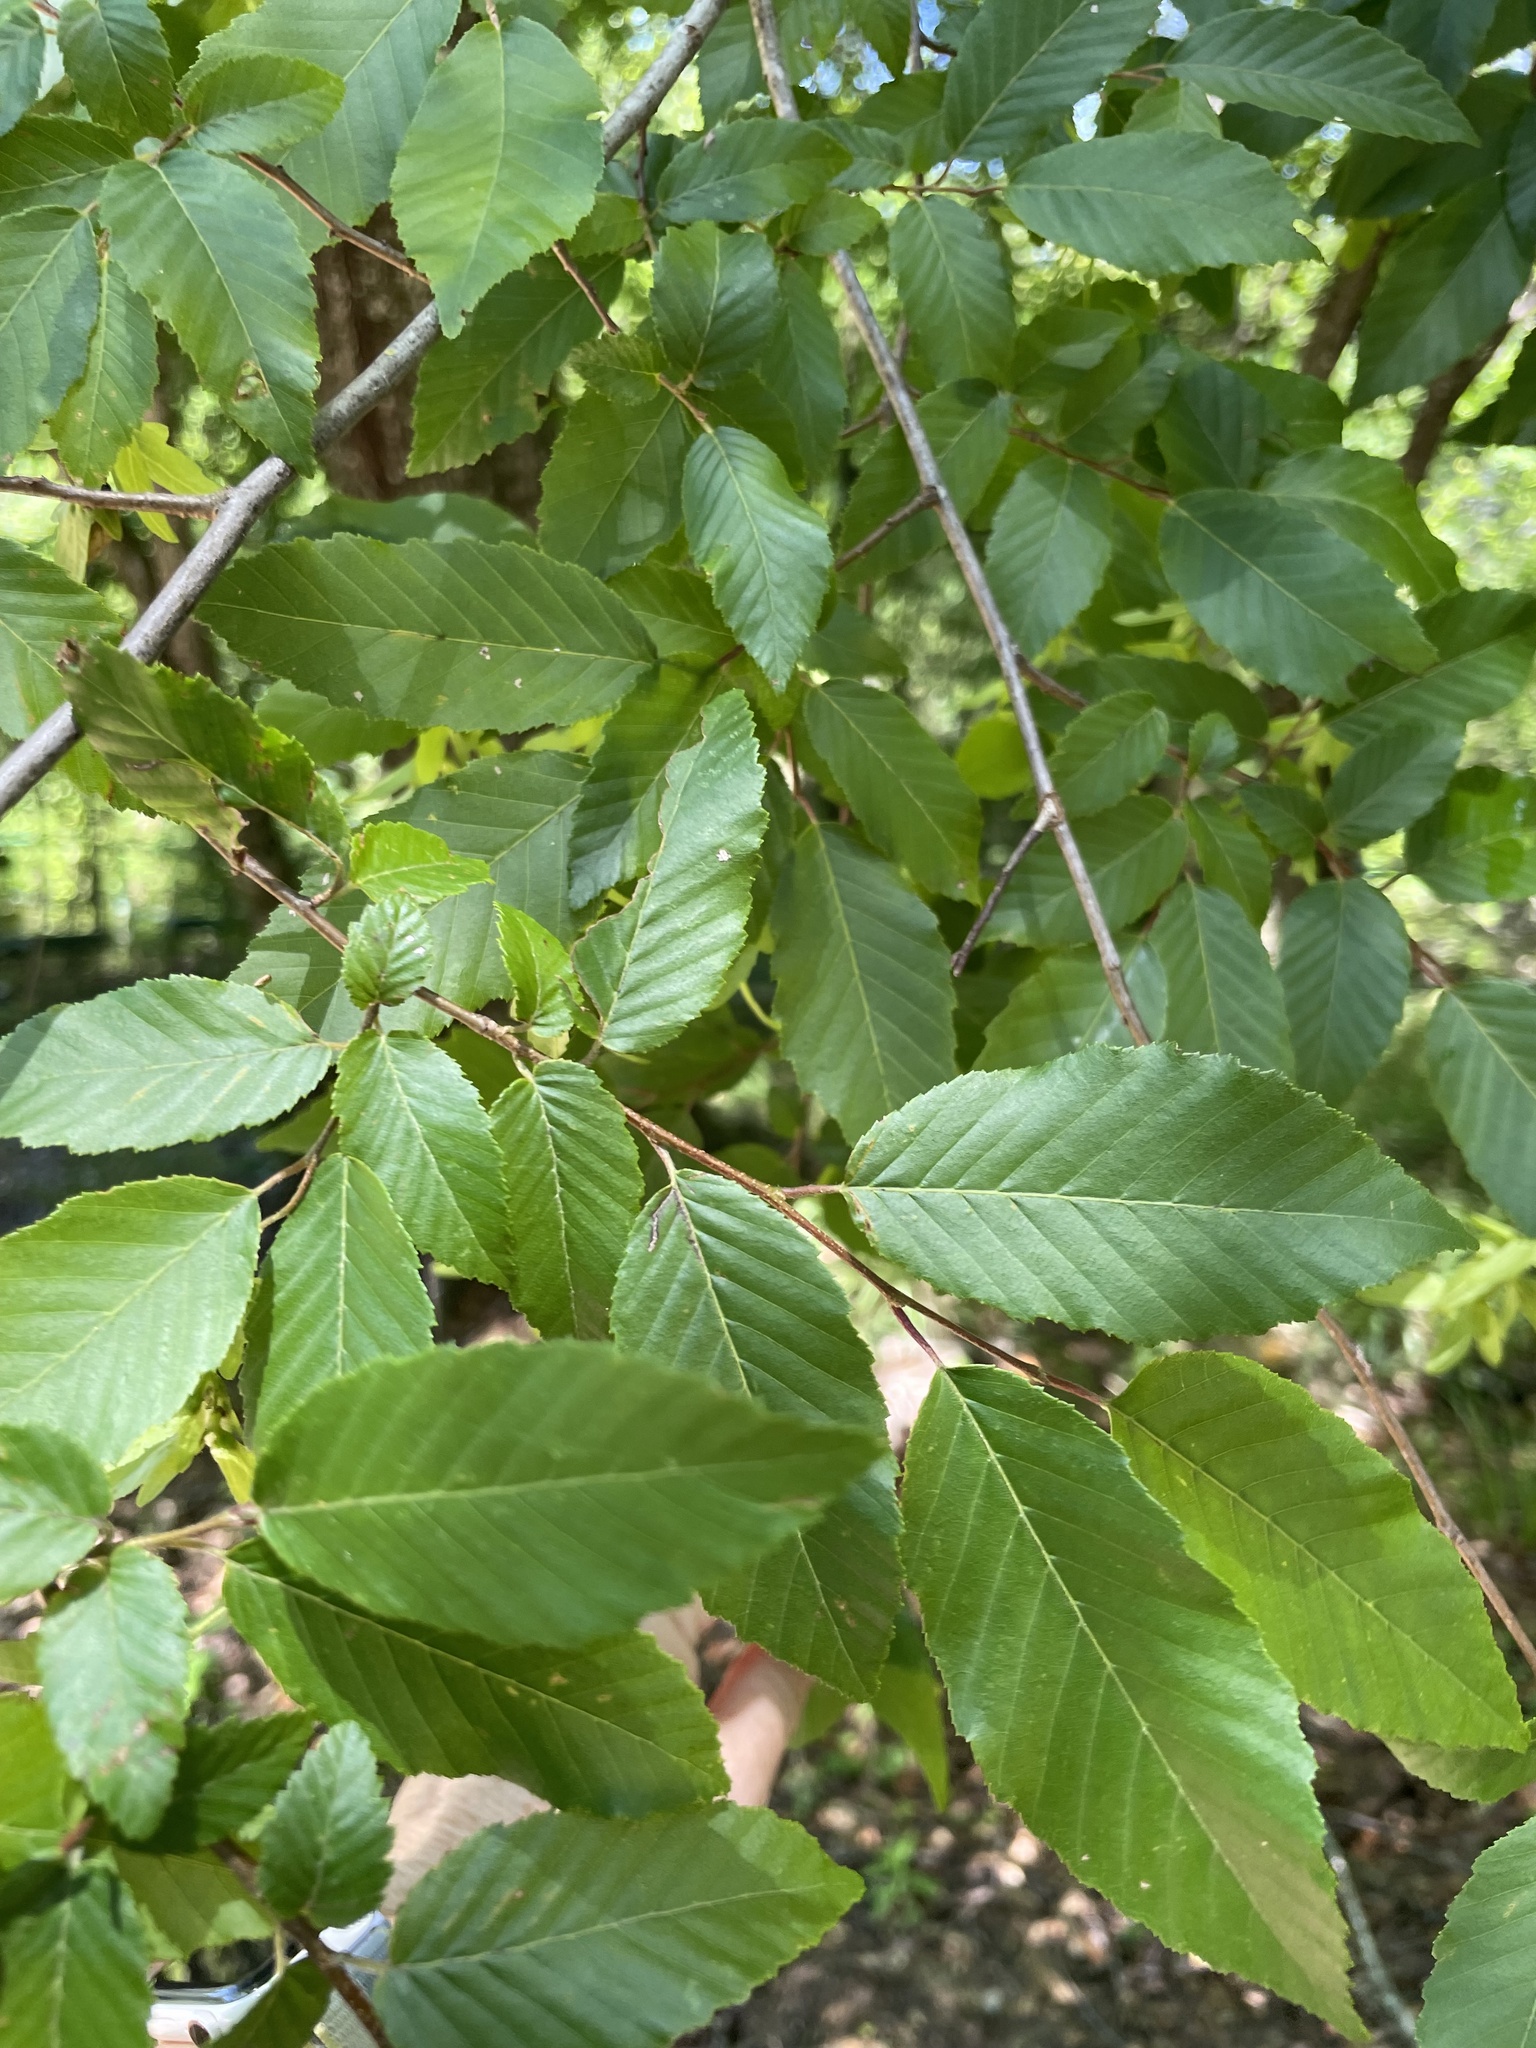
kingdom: Plantae
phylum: Tracheophyta
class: Magnoliopsida
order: Fagales
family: Betulaceae
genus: Carpinus
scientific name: Carpinus caroliniana
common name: American hornbeam
